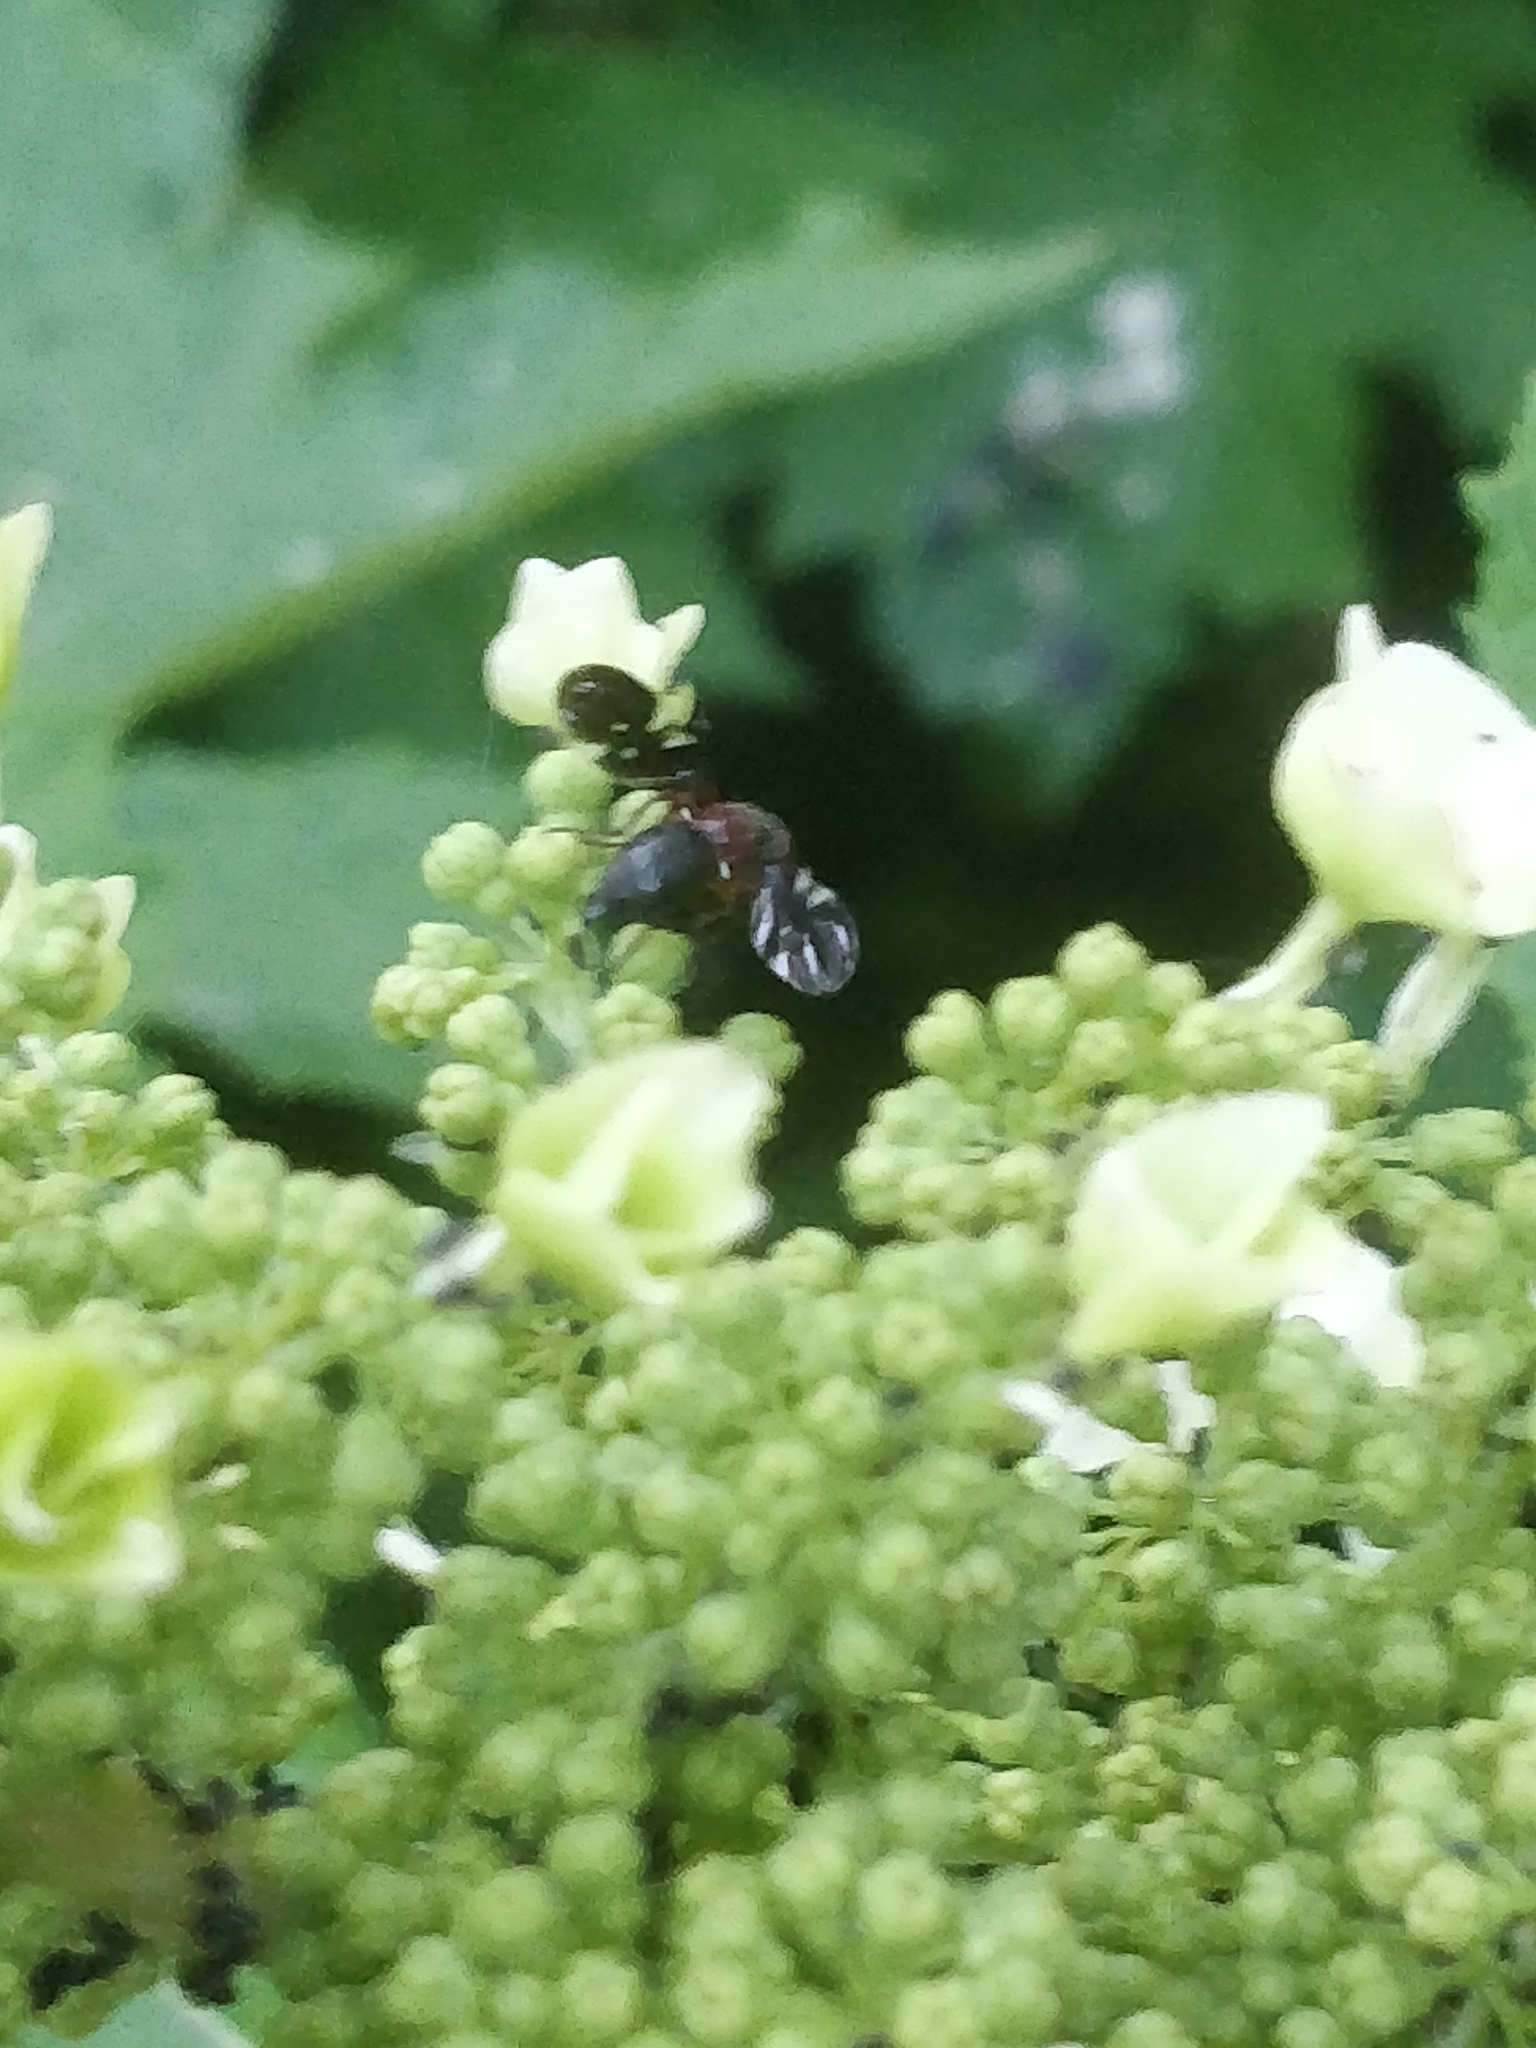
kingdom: Animalia
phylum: Arthropoda
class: Insecta
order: Diptera
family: Ulidiidae
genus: Delphinia
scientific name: Delphinia picta
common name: Common picture-winged fly
